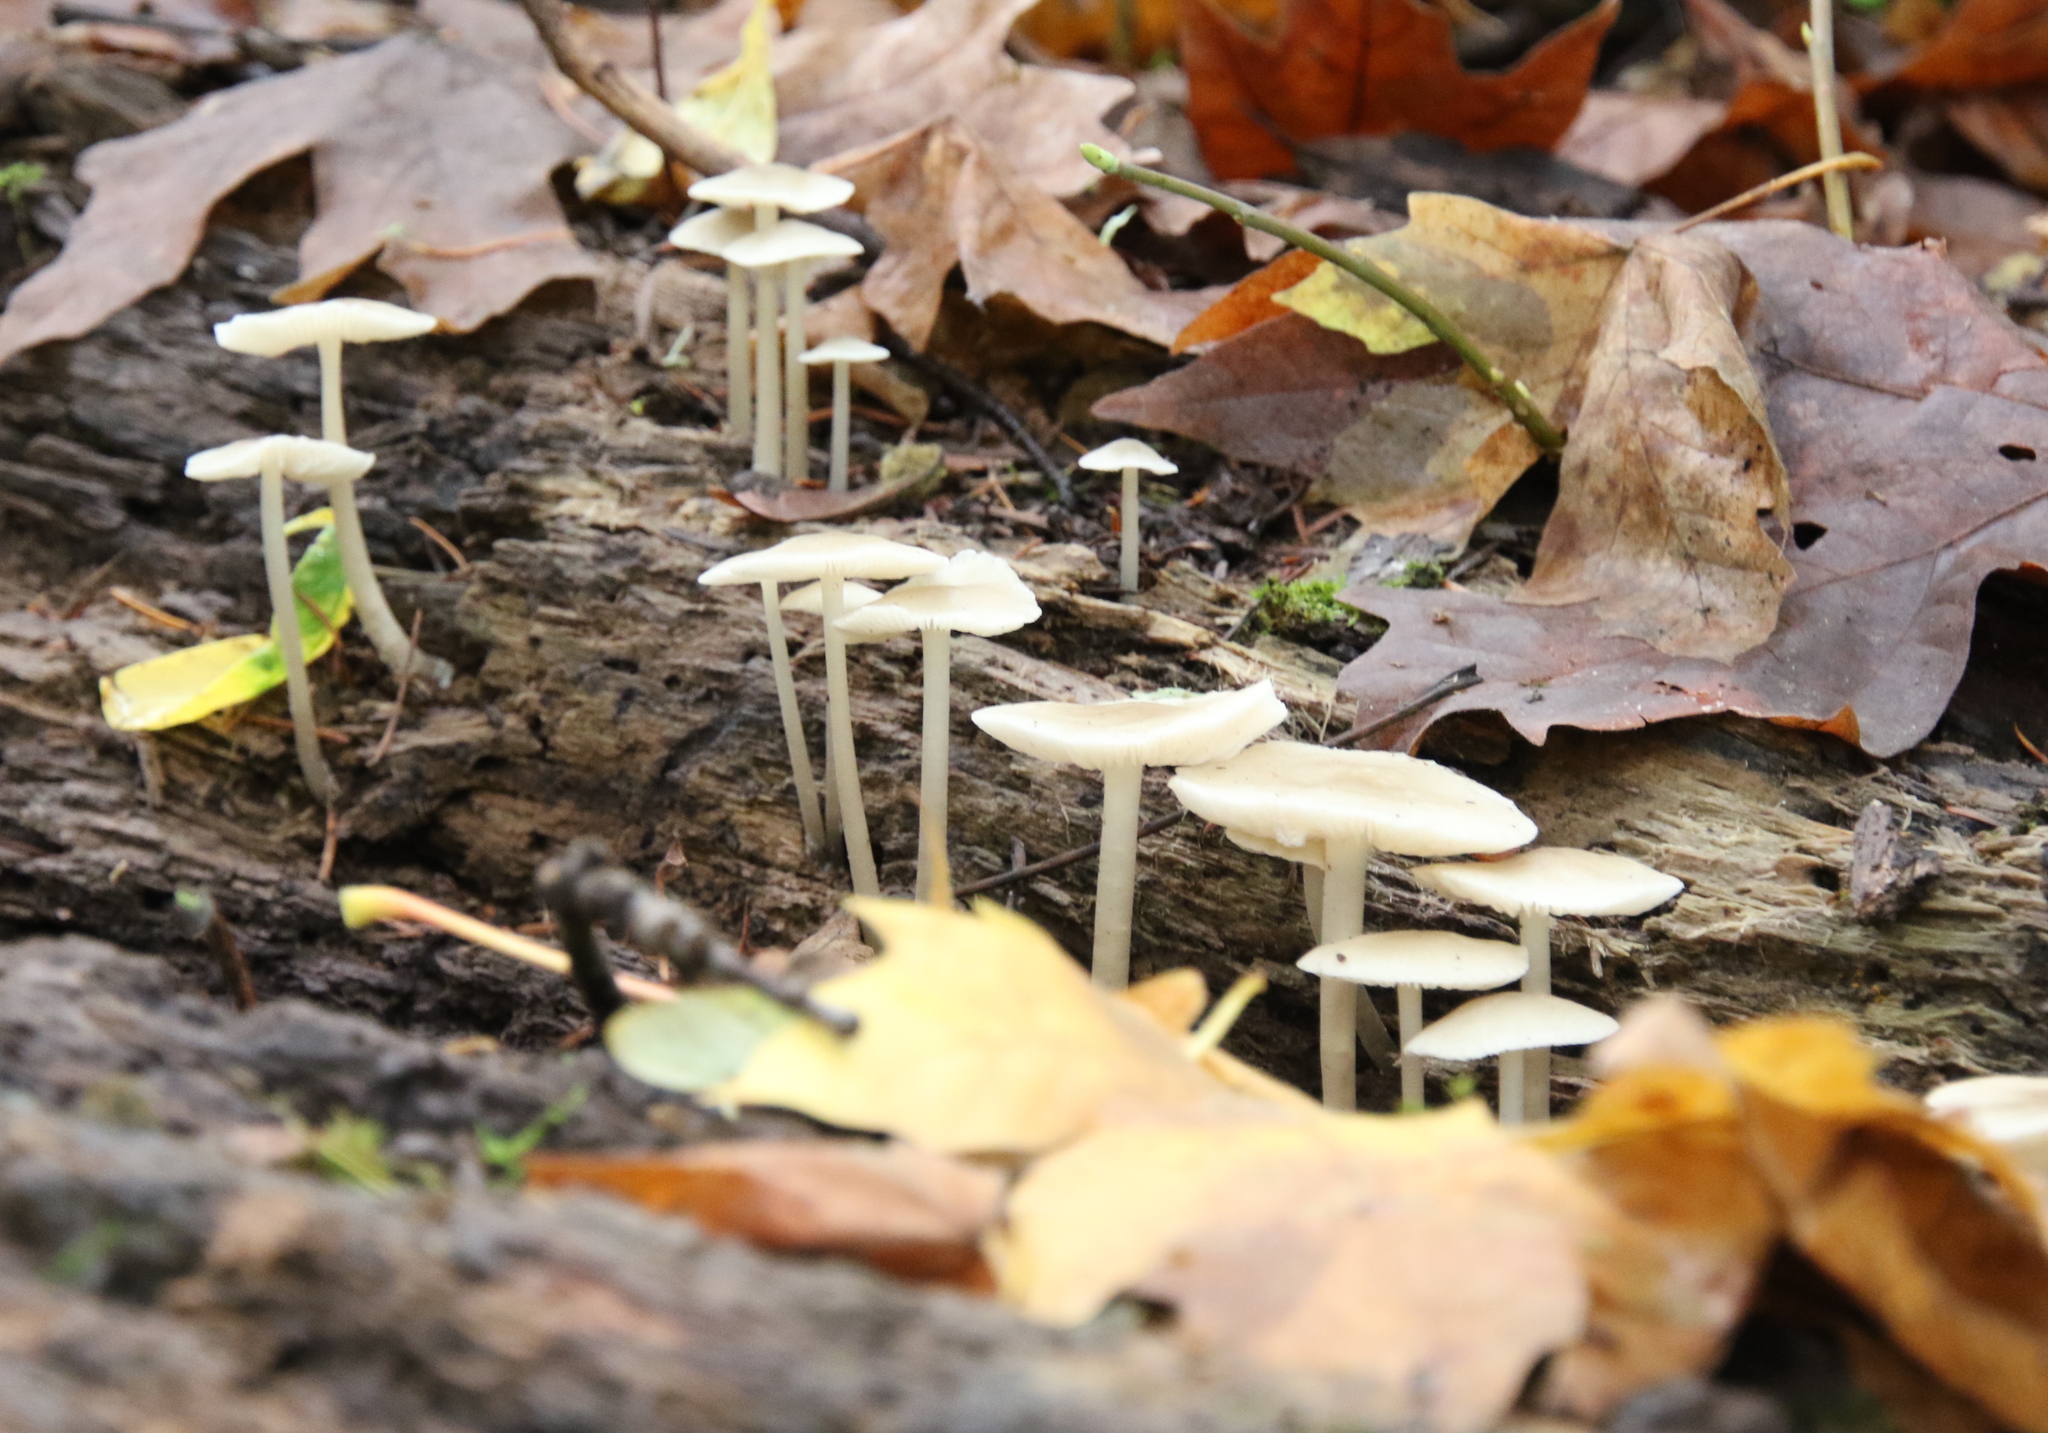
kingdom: Fungi
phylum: Basidiomycota
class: Agaricomycetes
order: Agaricales
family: Mycenaceae
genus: Mycena
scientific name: Mycena galericulata
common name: Bonnet mycena
